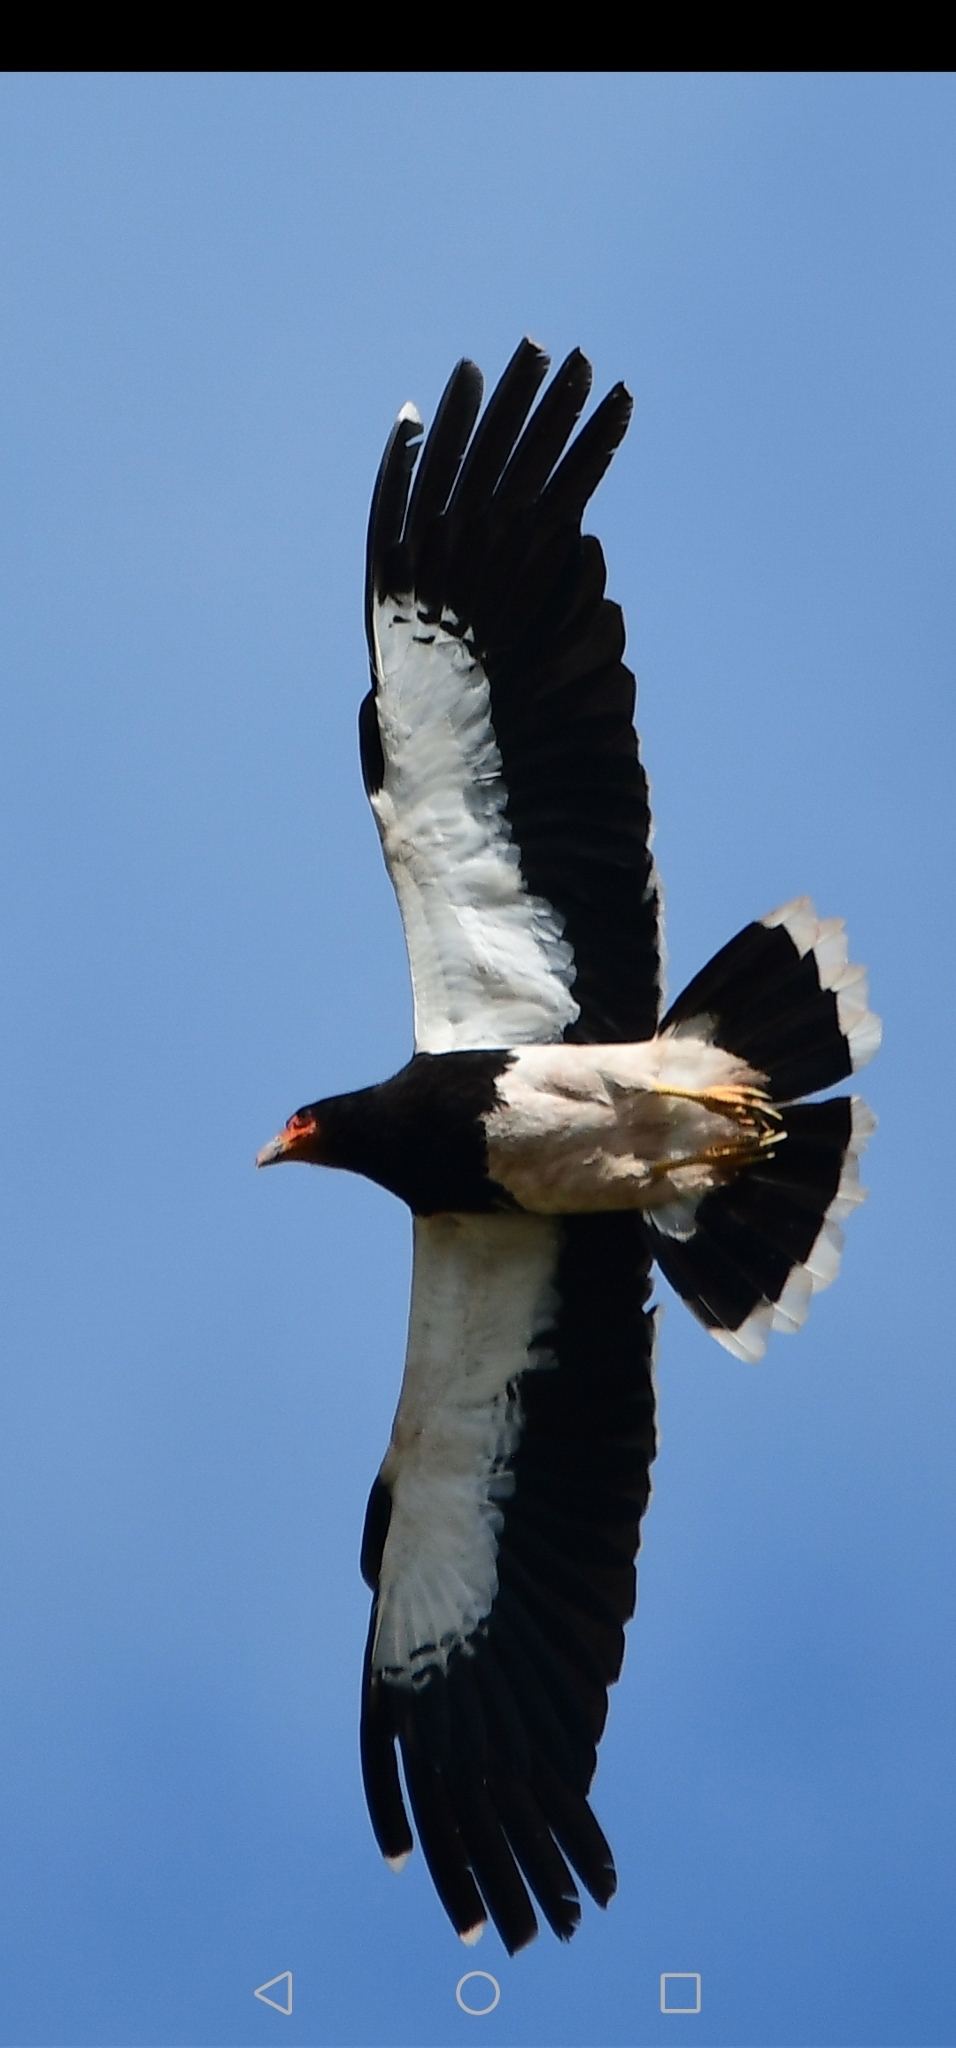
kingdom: Animalia
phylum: Chordata
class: Aves
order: Falconiformes
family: Falconidae
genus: Daptrius
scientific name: Daptrius
